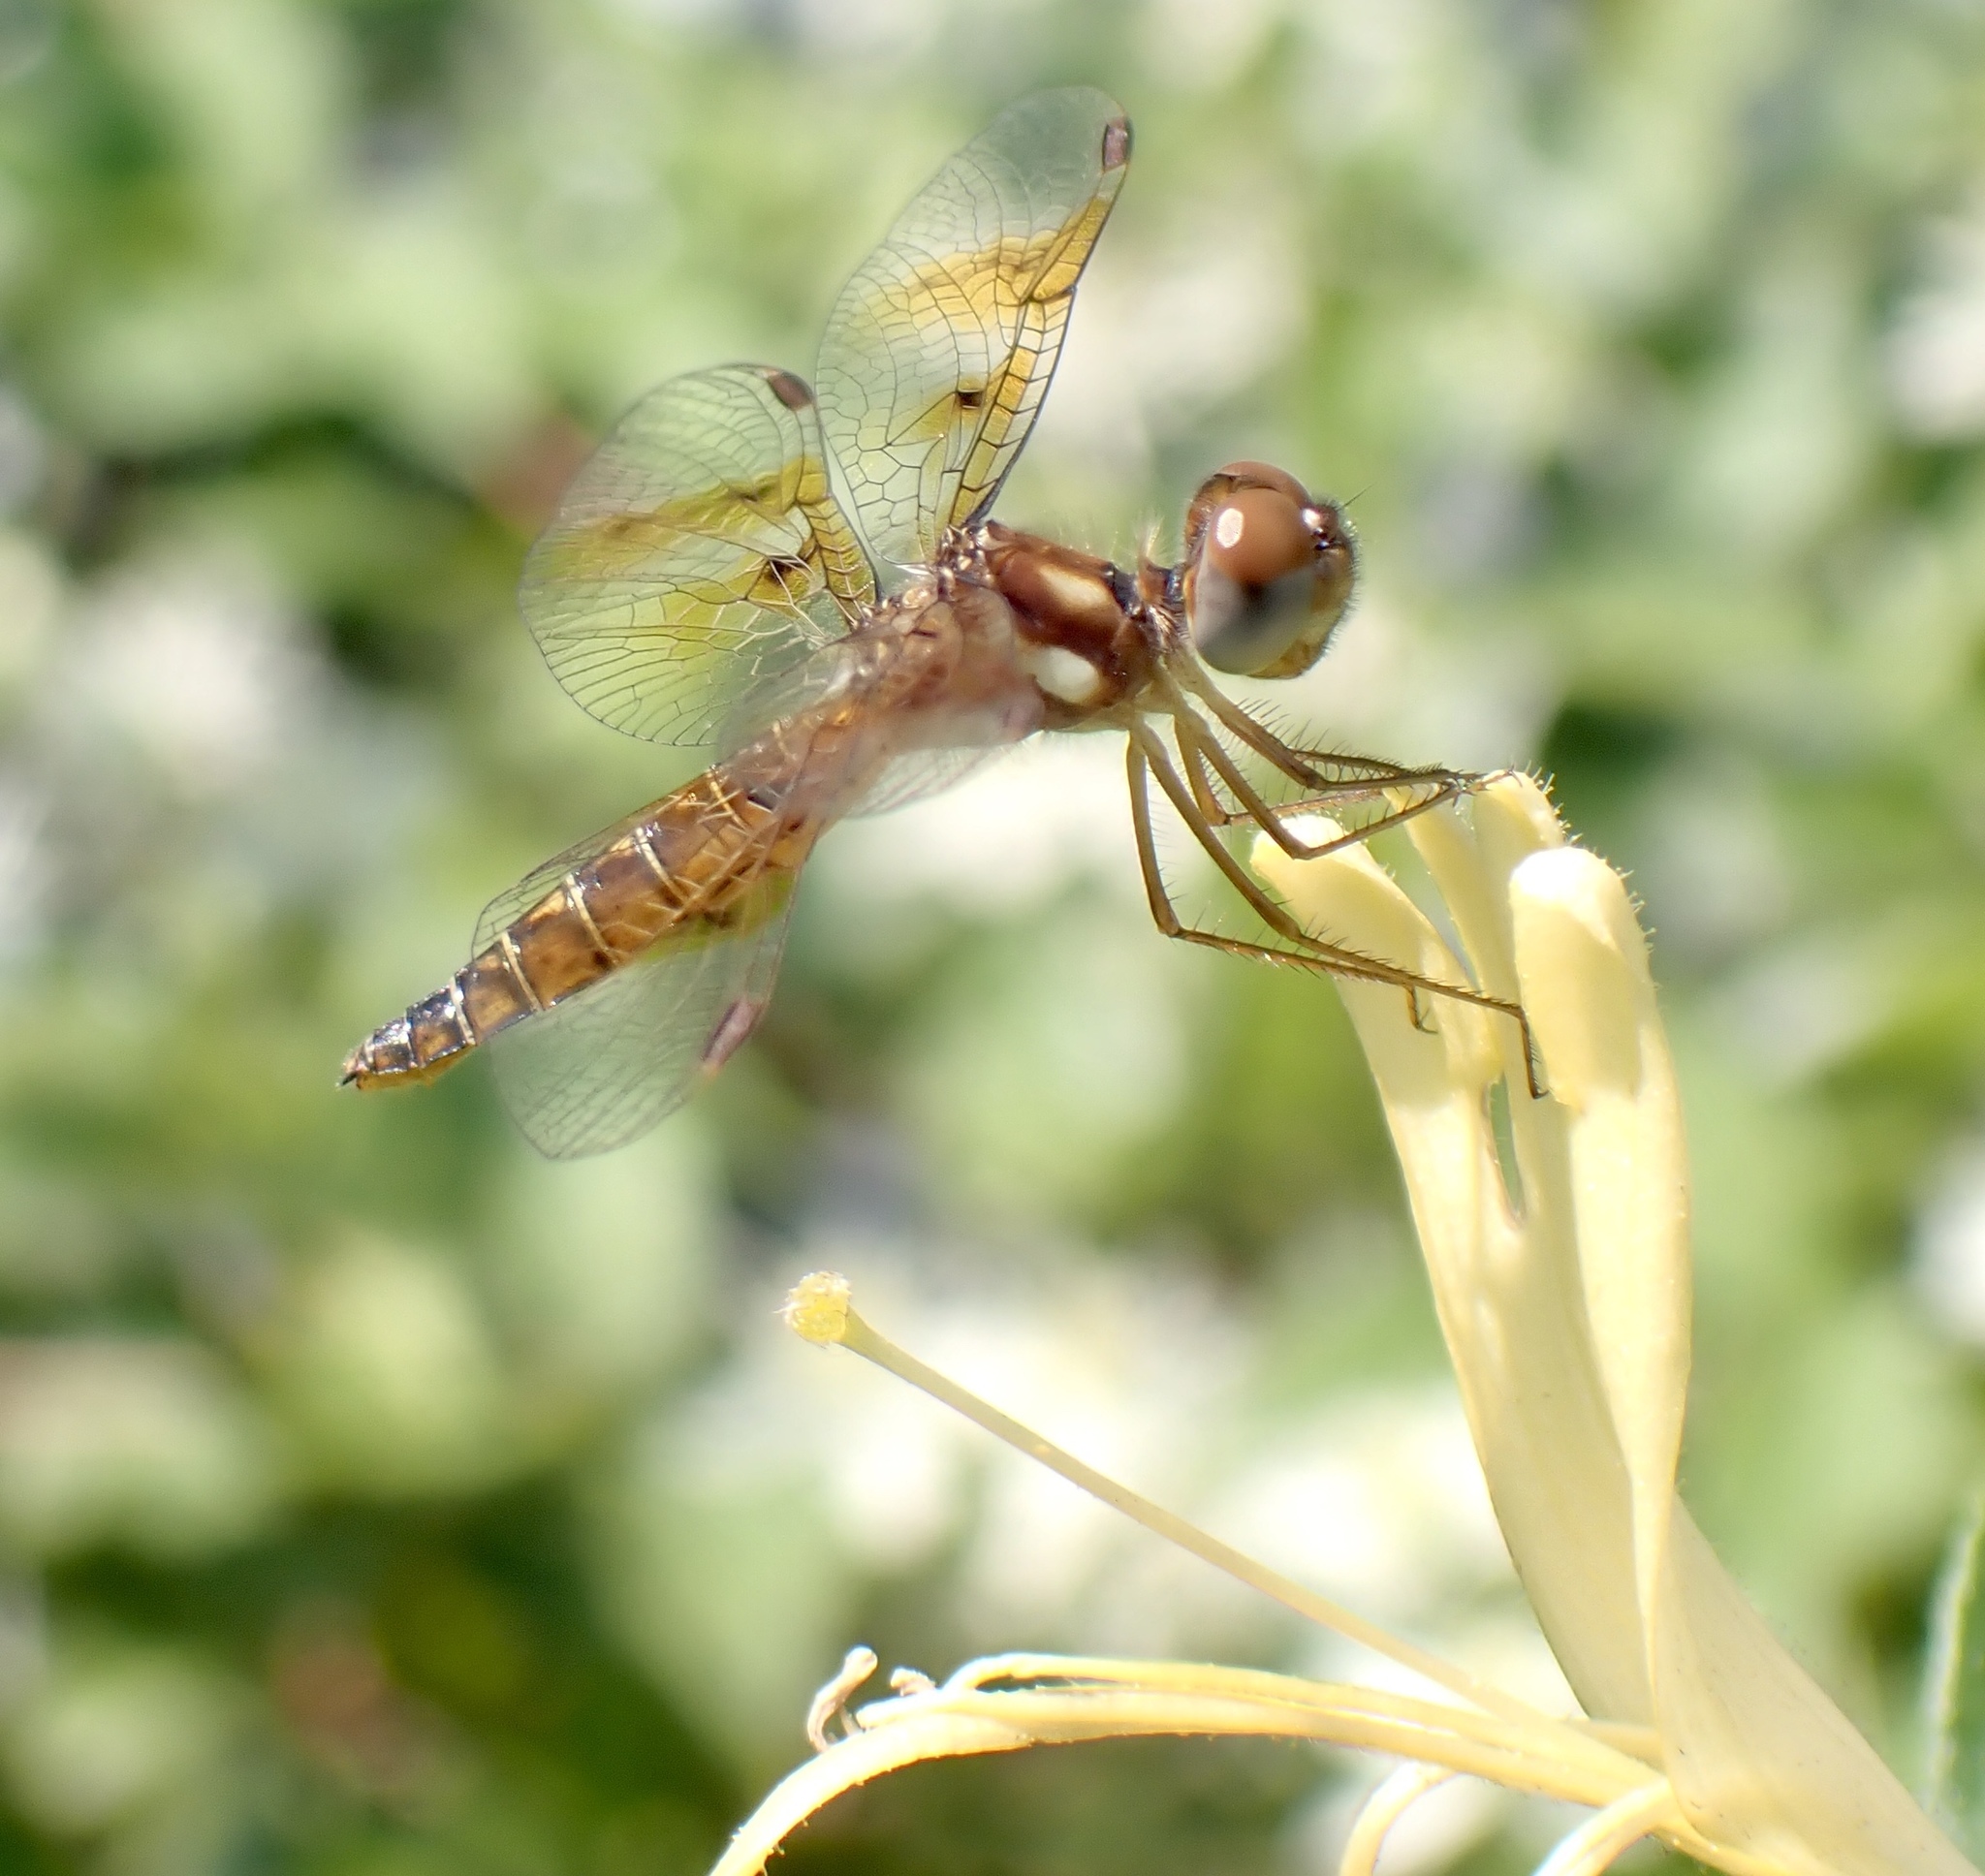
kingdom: Animalia
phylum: Arthropoda
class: Insecta
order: Odonata
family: Libellulidae
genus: Perithemis
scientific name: Perithemis tenera
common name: Eastern amberwing
